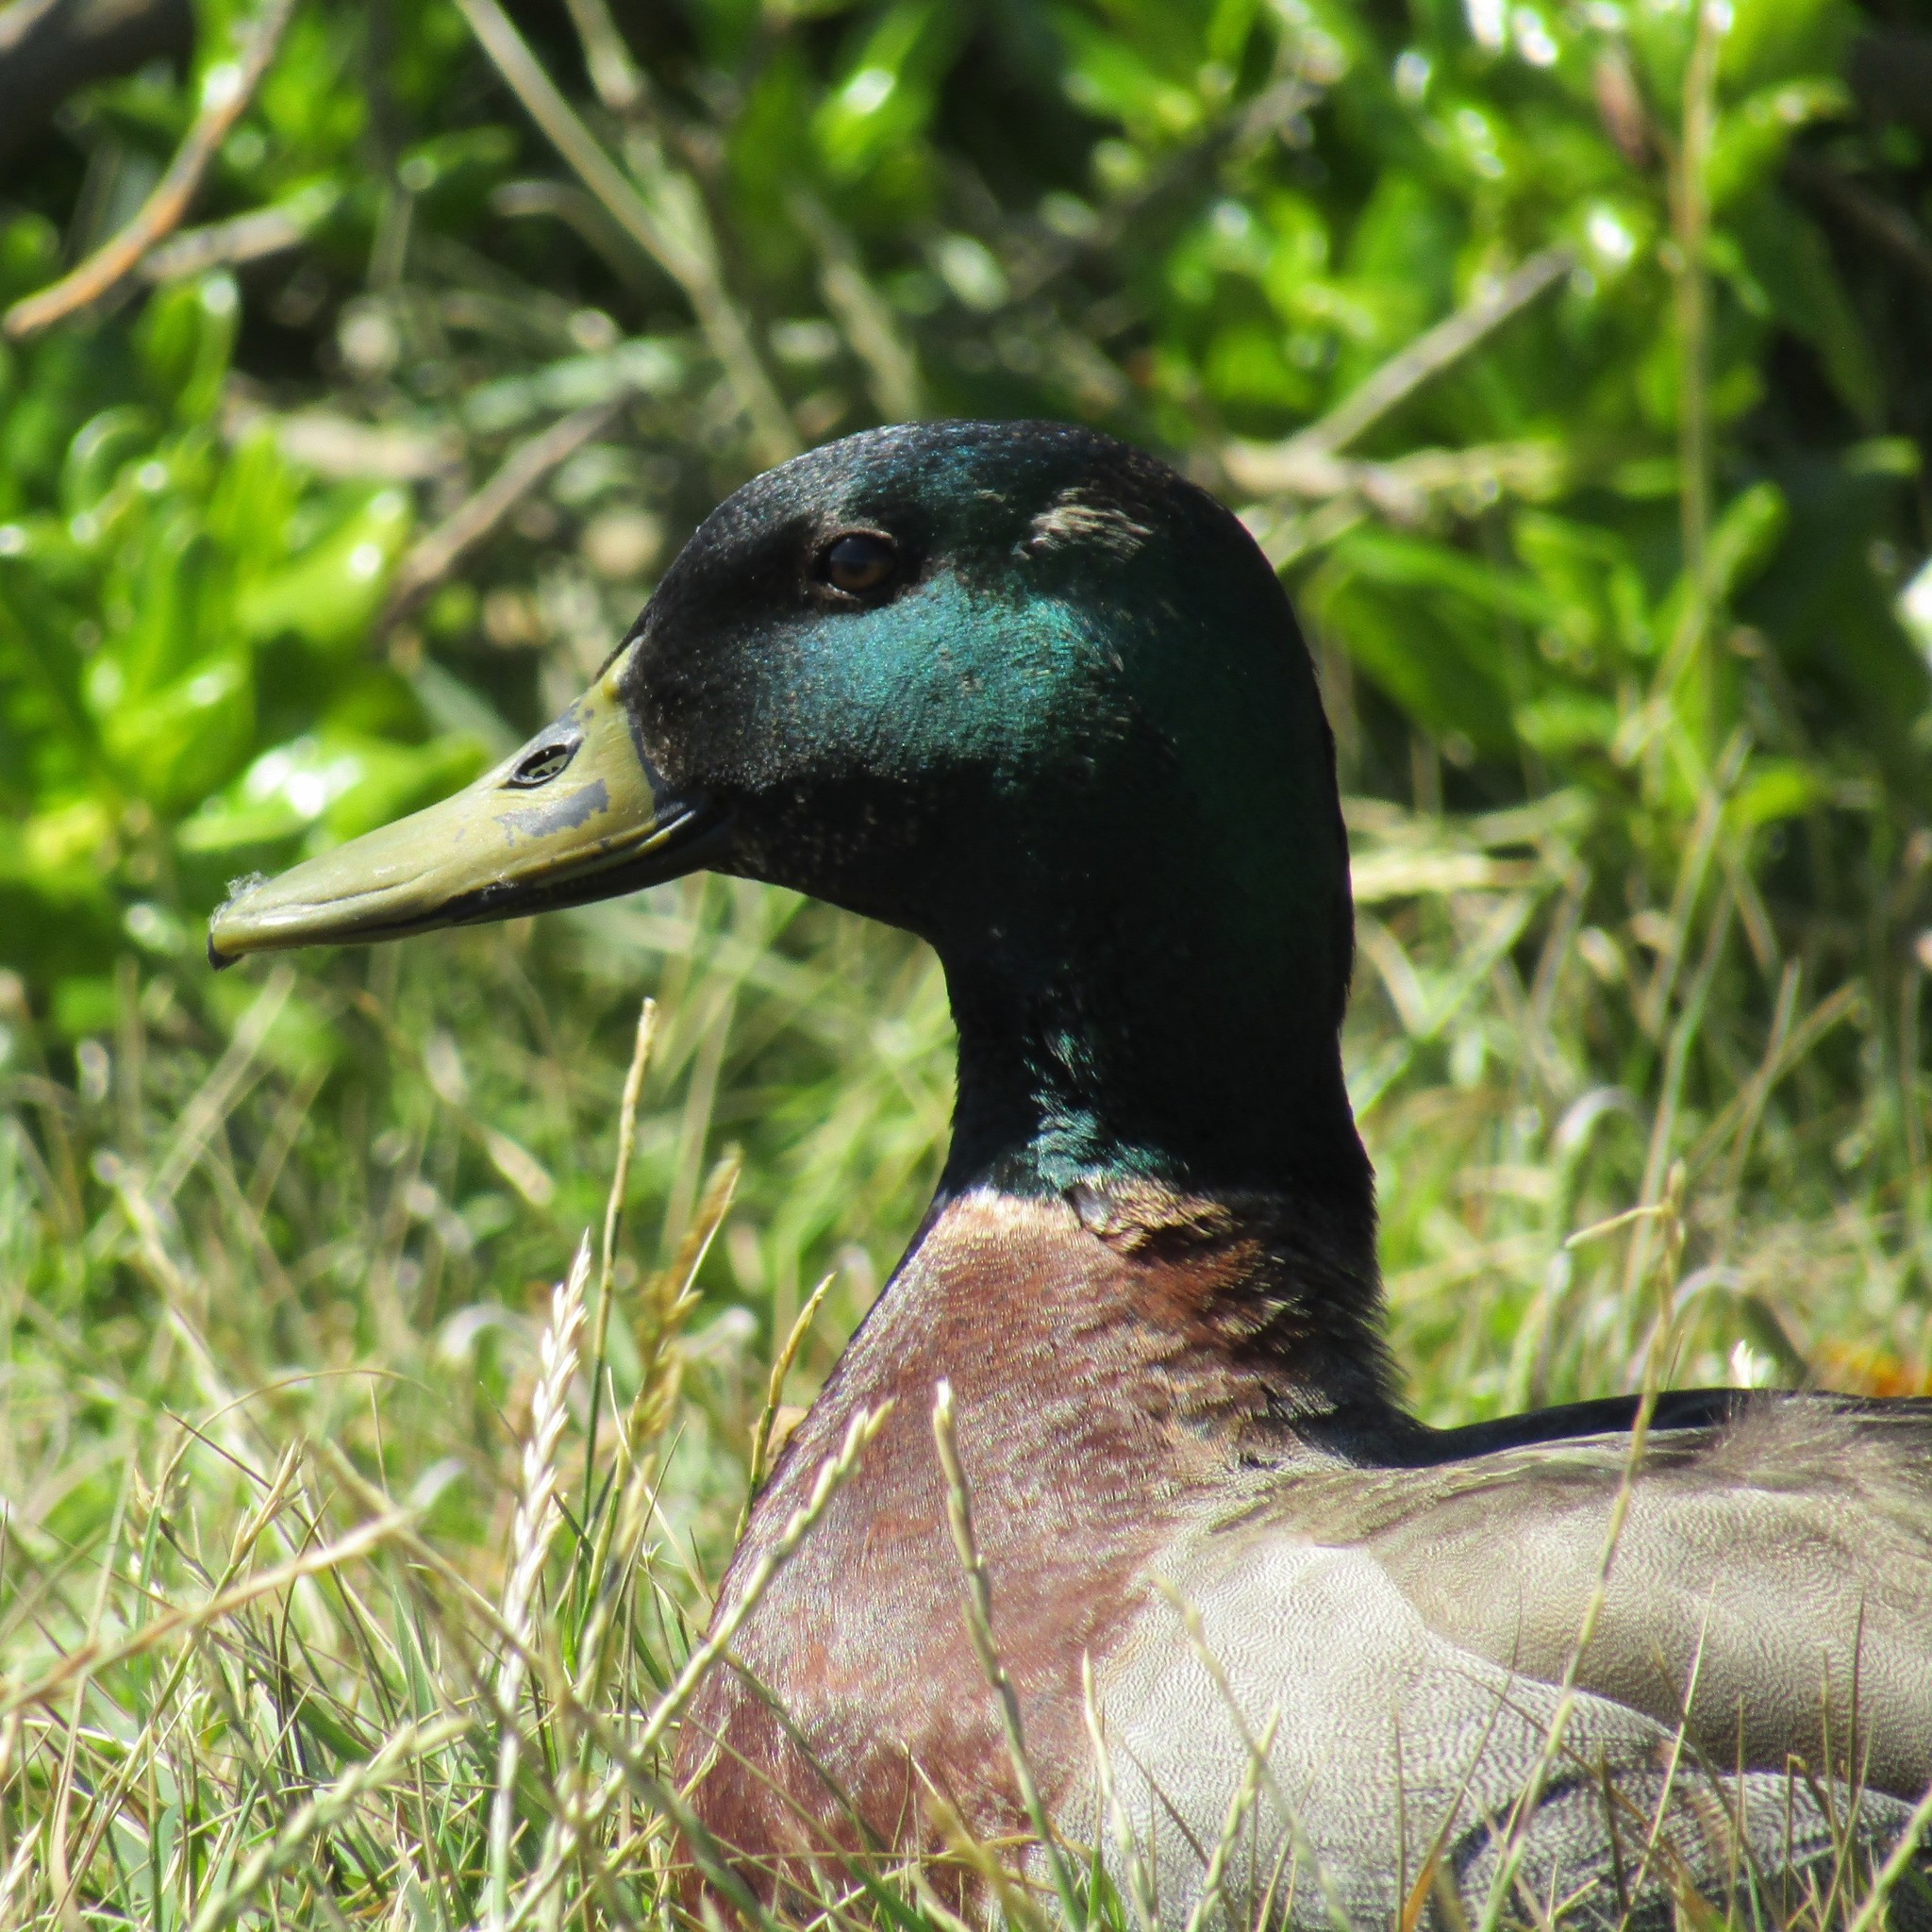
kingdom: Animalia
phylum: Chordata
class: Aves
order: Anseriformes
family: Anatidae
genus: Anas
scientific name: Anas
